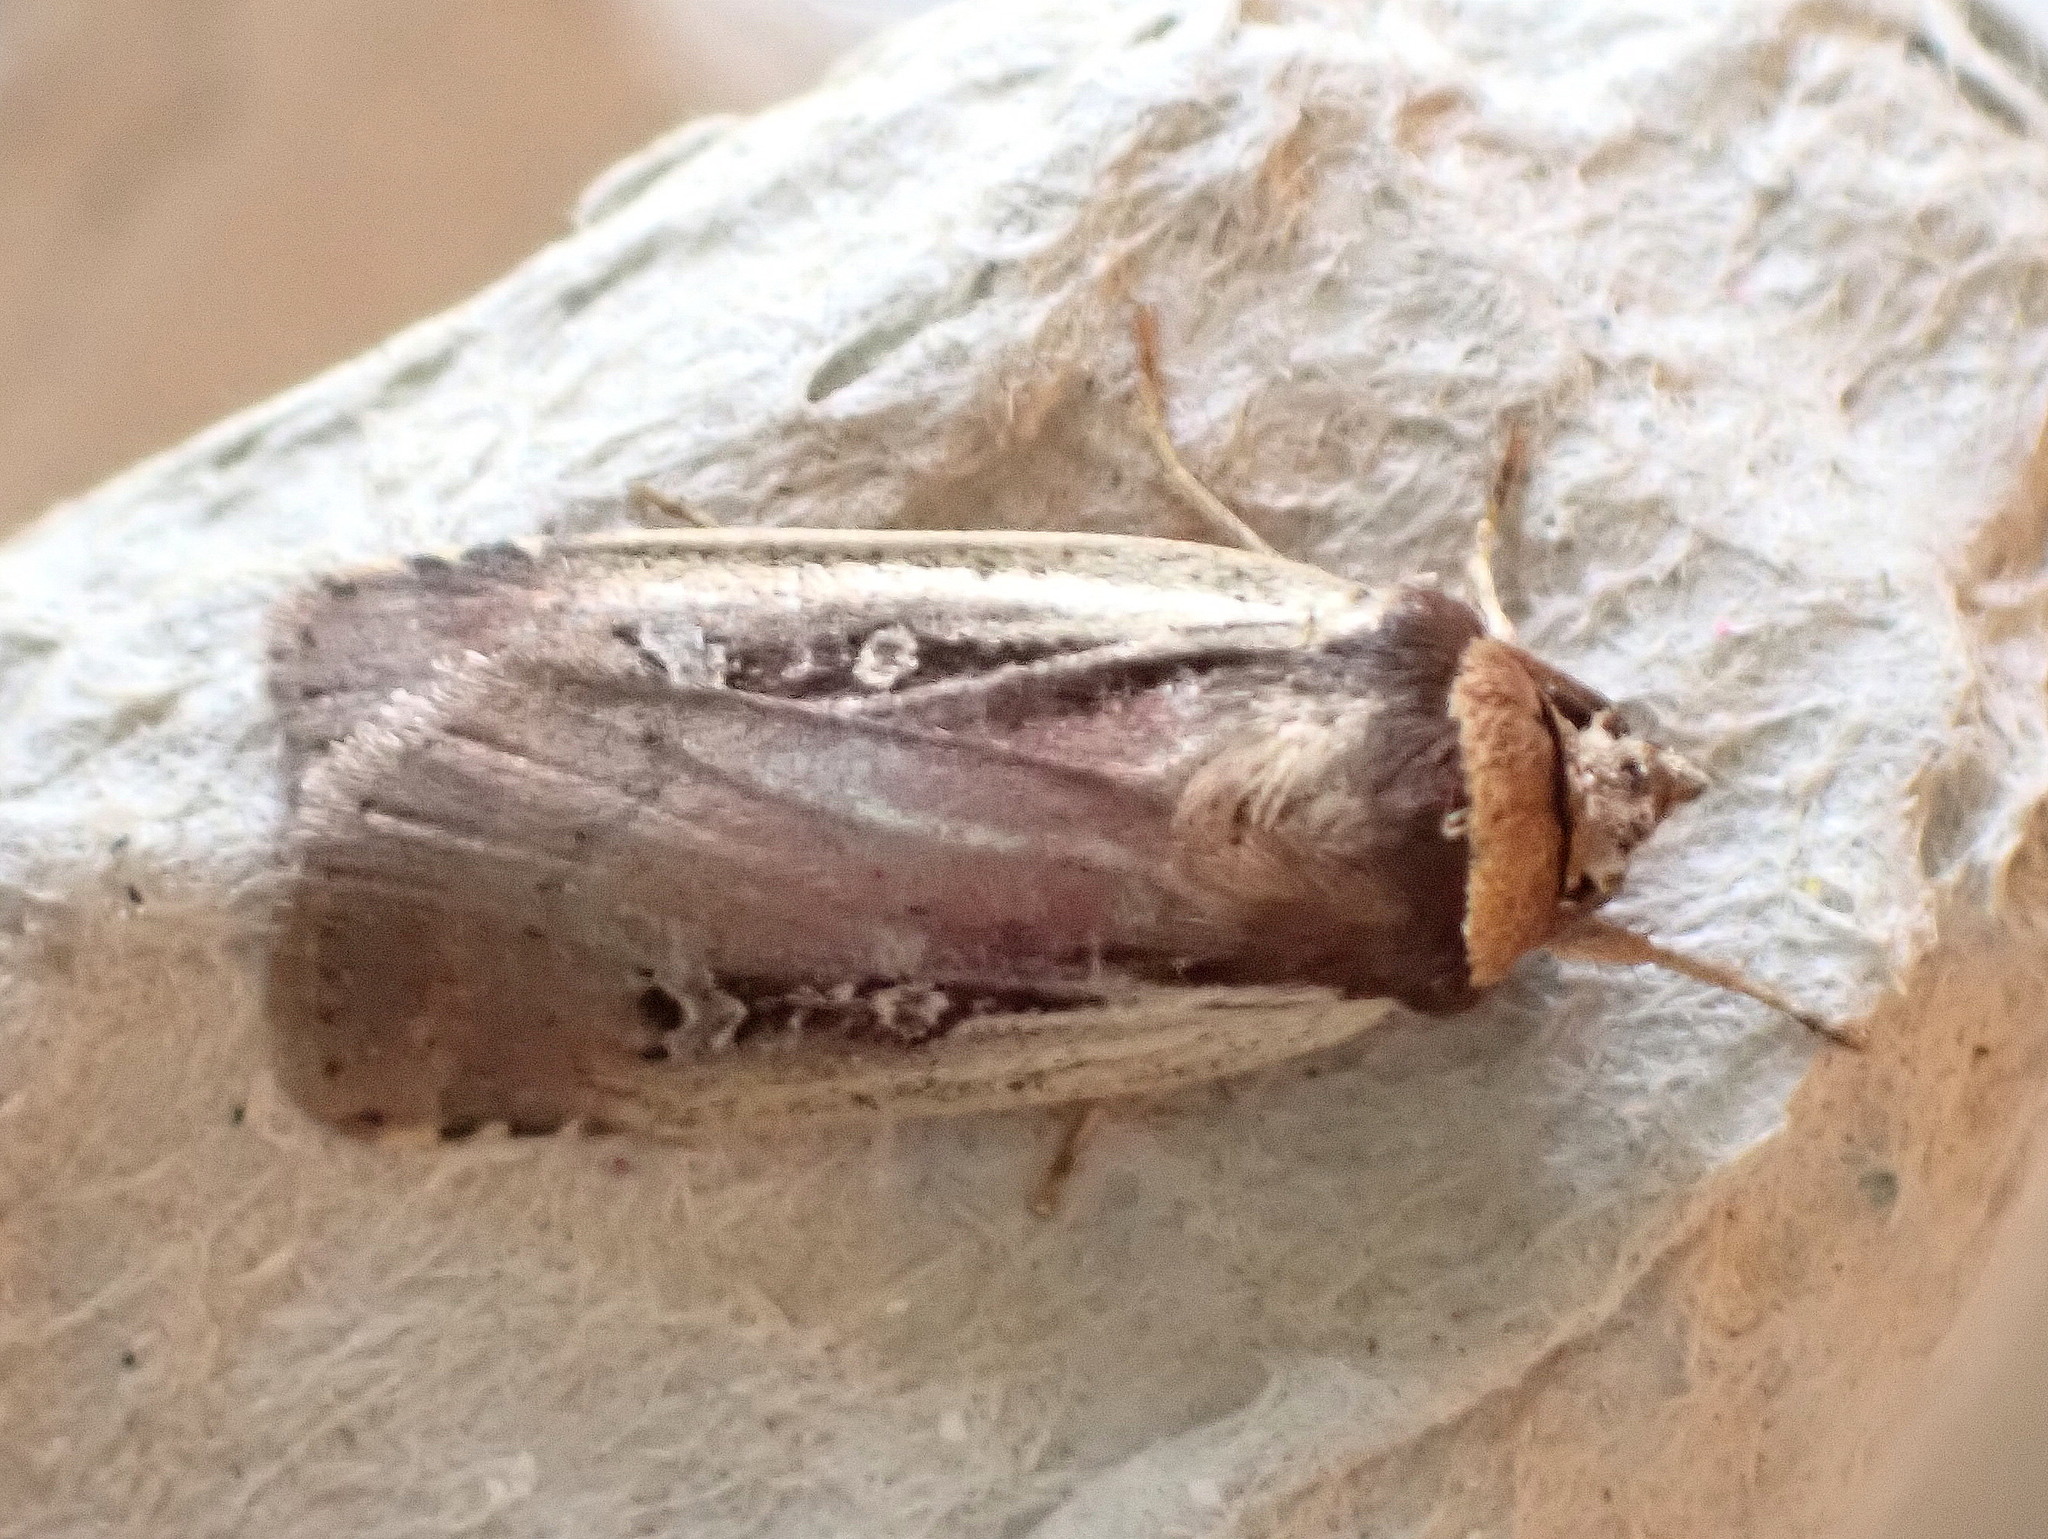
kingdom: Animalia
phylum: Arthropoda
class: Insecta
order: Lepidoptera
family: Noctuidae
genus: Ochropleura
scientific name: Ochropleura implecta
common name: Flame-shouldered dart
